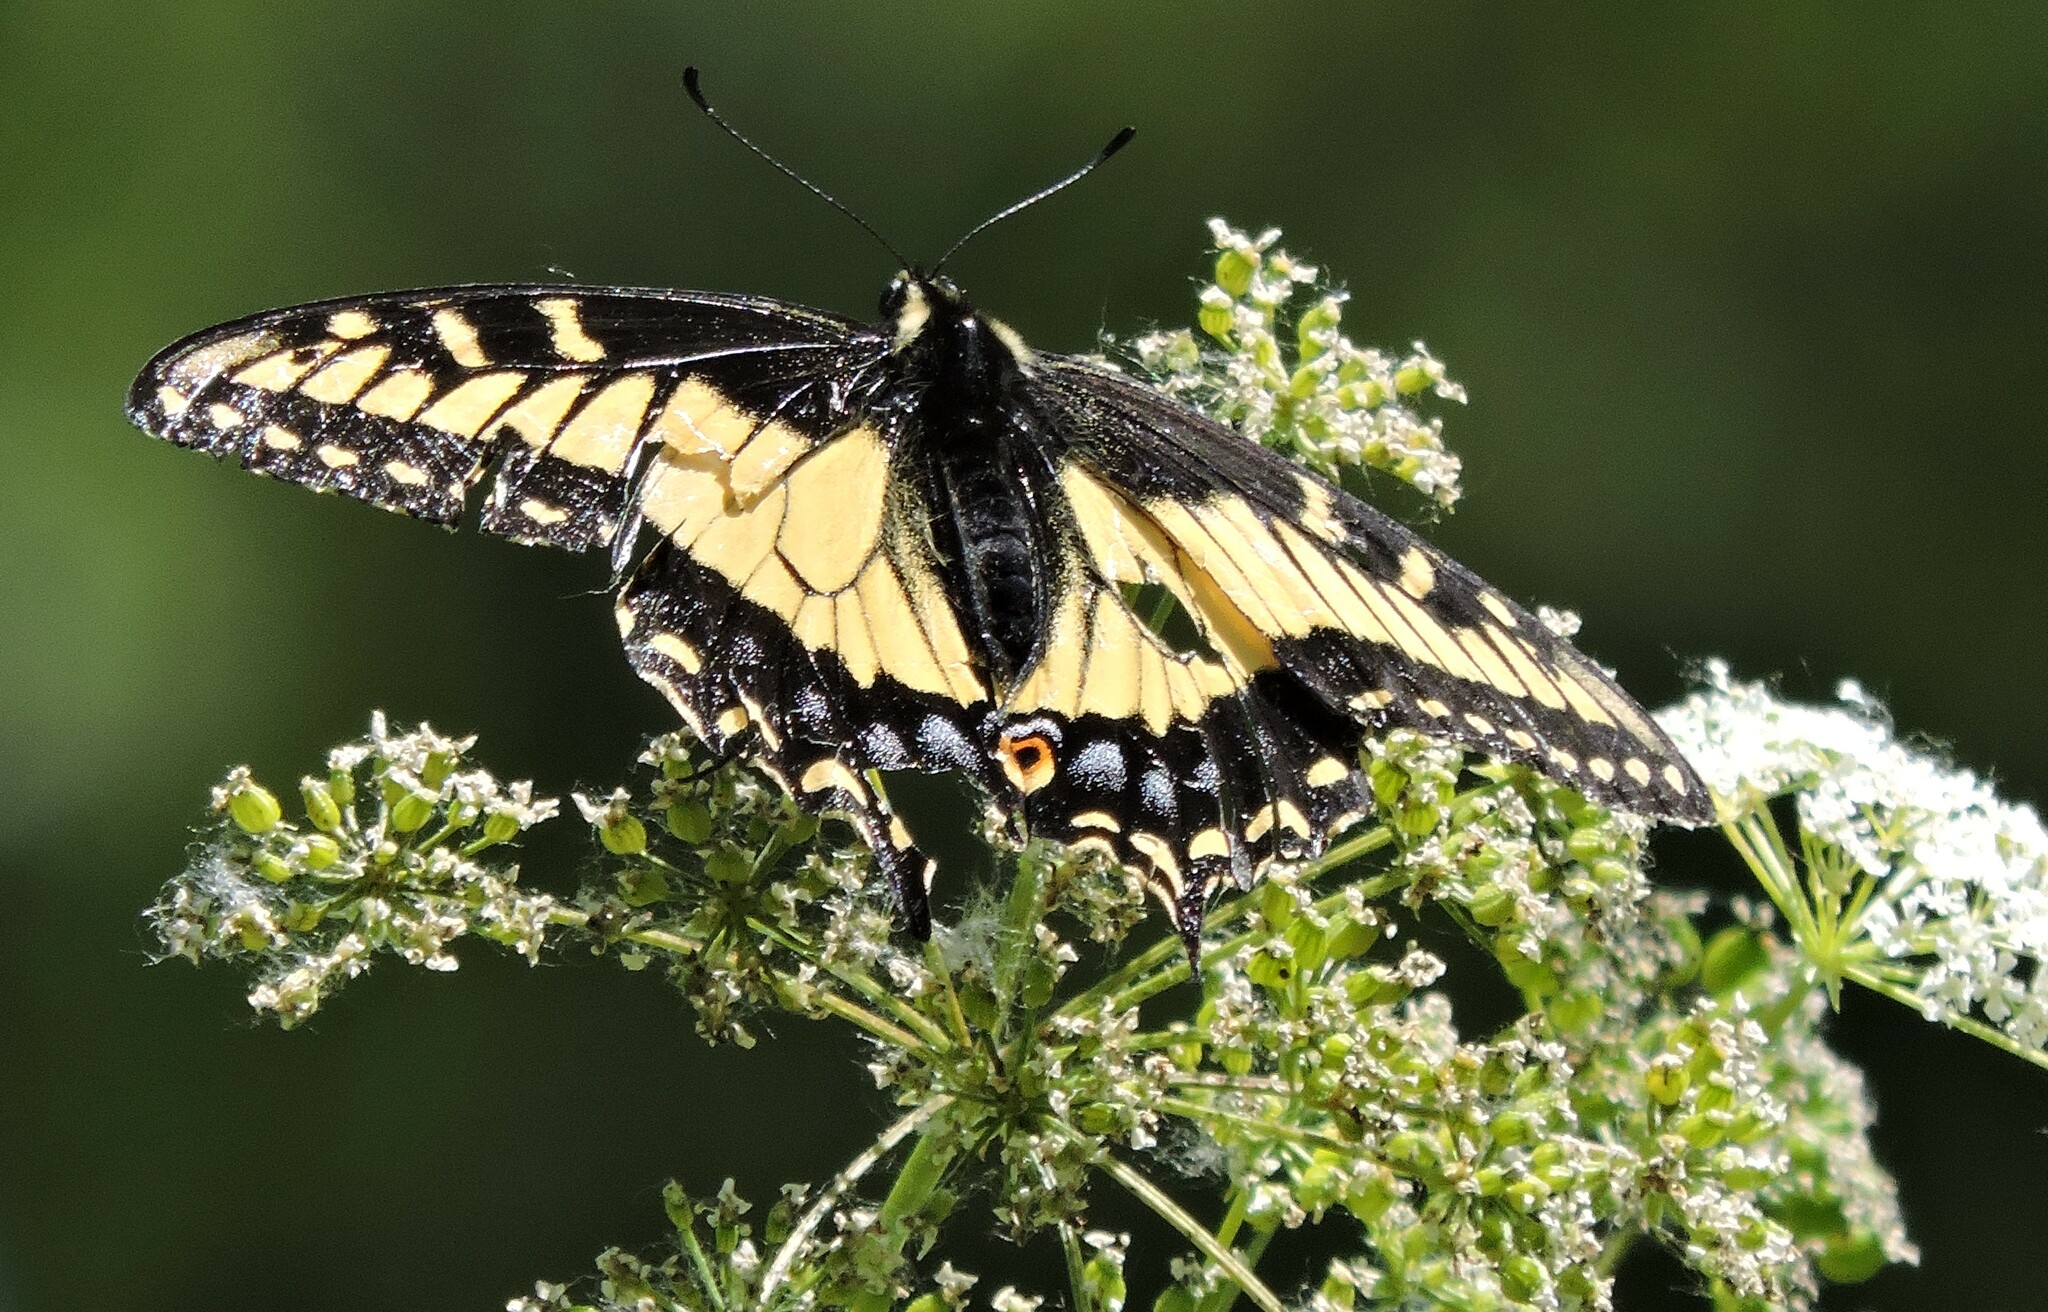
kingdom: Animalia
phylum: Arthropoda
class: Insecta
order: Lepidoptera
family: Papilionidae
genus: Papilio
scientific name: Papilio zelicaon
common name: Anise swallowtail
